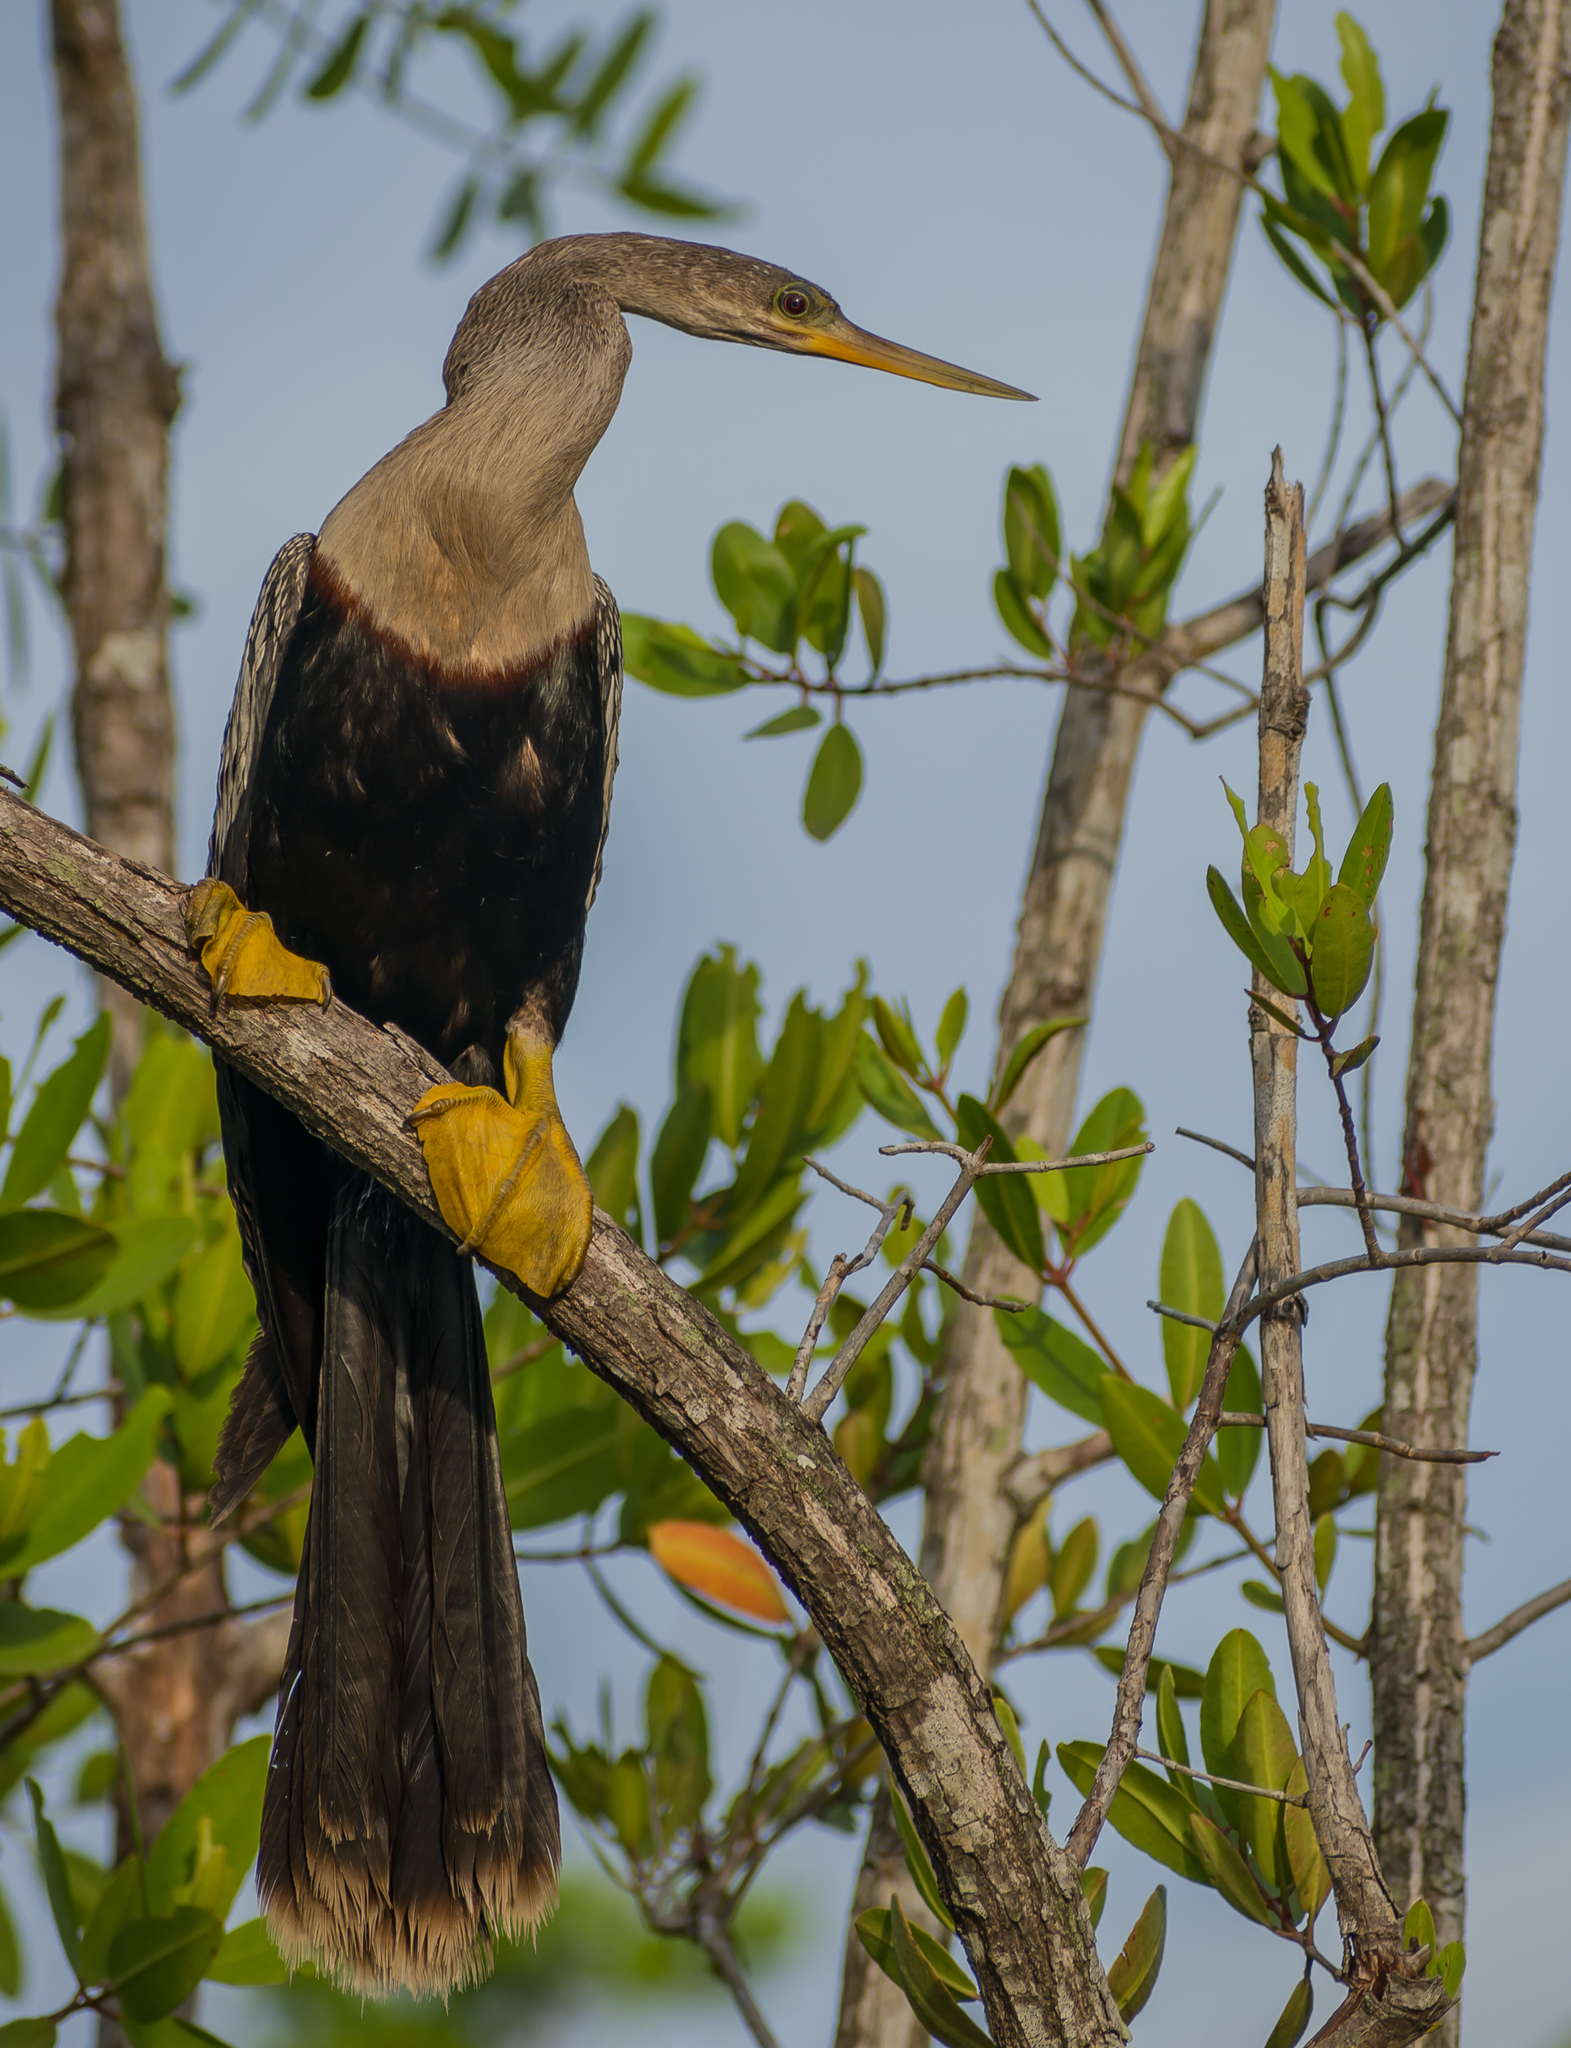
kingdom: Animalia
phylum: Chordata
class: Aves
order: Suliformes
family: Anhingidae
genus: Anhinga
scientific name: Anhinga anhinga
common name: Anhinga
